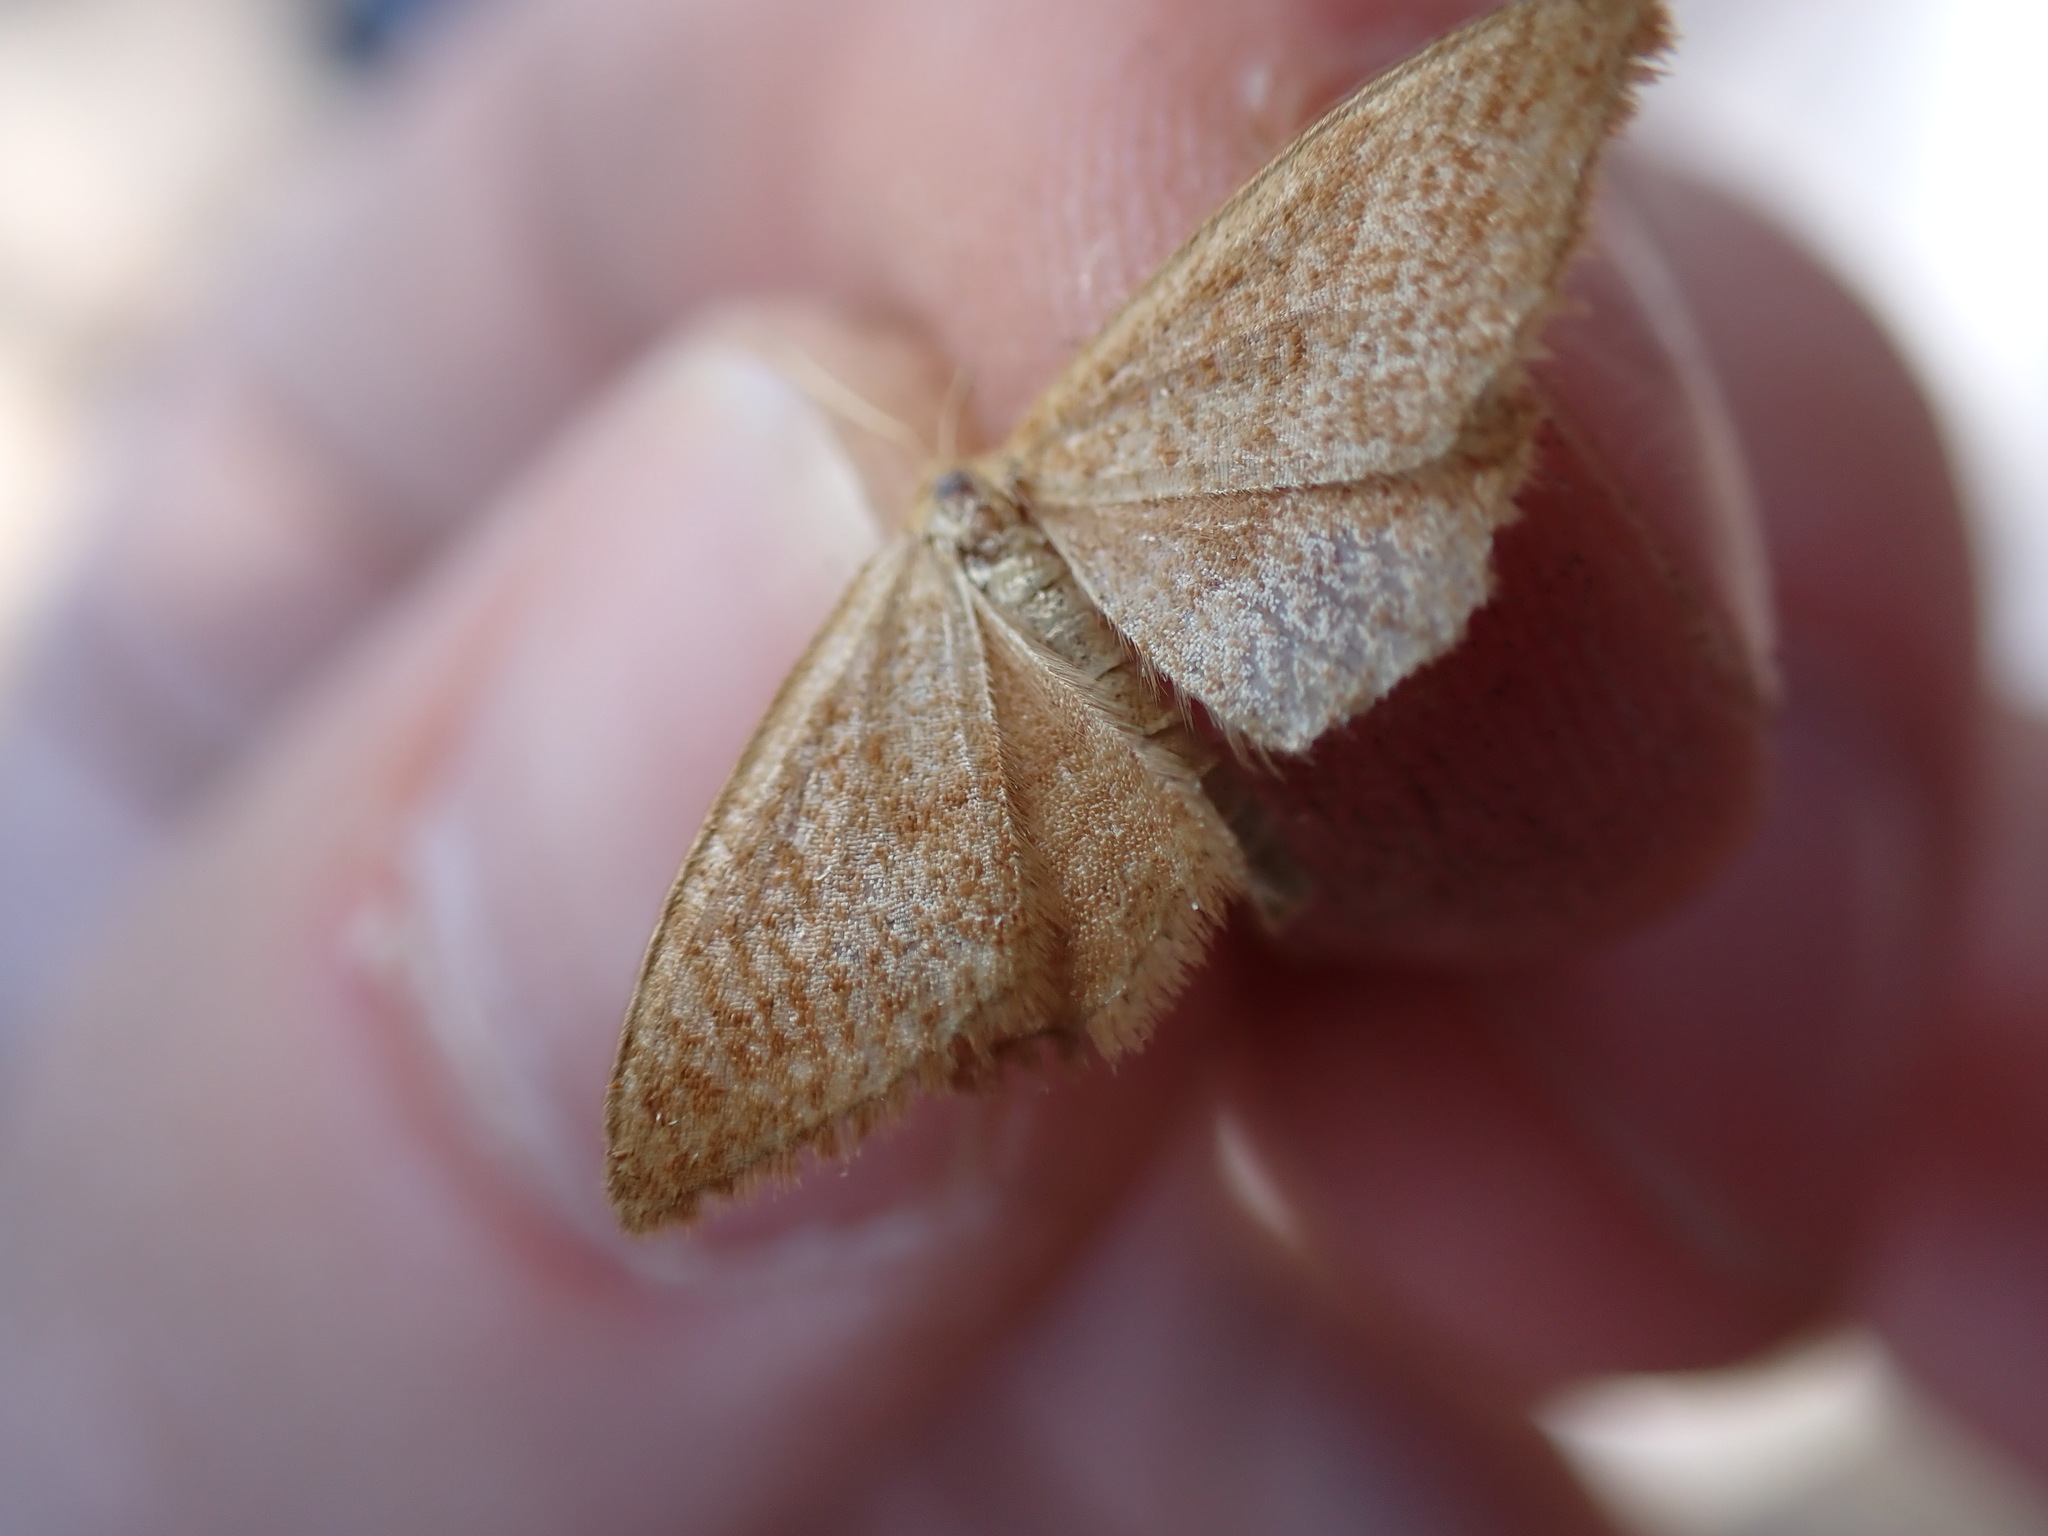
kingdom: Animalia
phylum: Arthropoda
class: Insecta
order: Lepidoptera
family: Geometridae
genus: Idaea
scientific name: Idaea ochrata
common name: Bright wave
